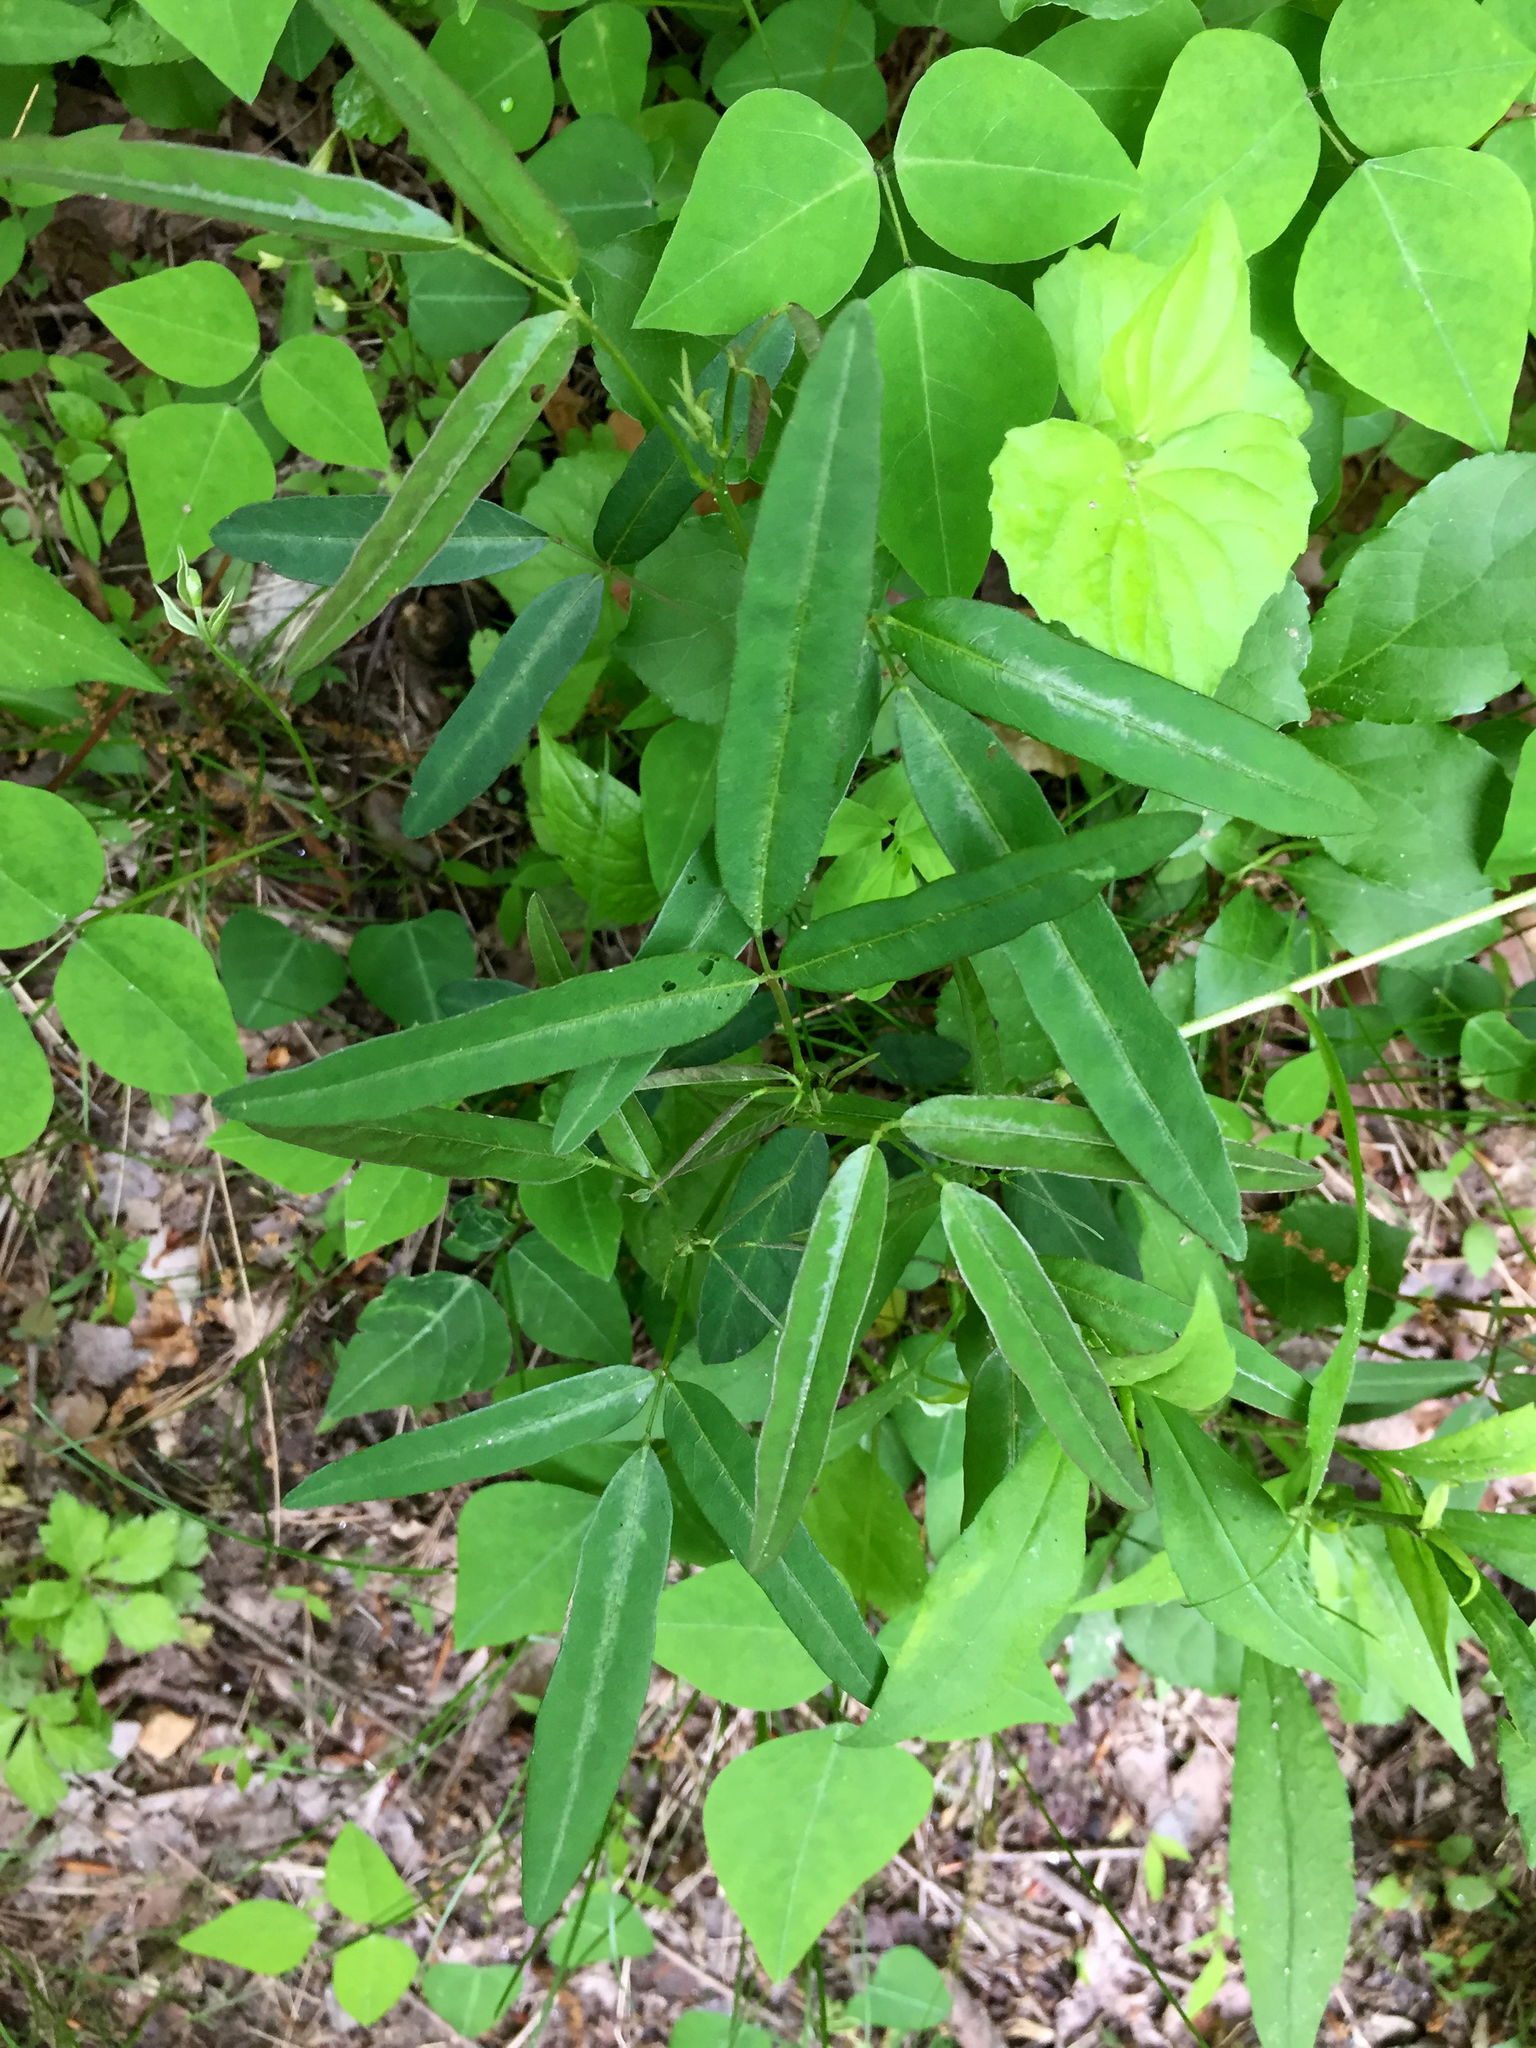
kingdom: Plantae
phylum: Tracheophyta
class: Magnoliopsida
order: Fabales
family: Fabaceae
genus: Desmodium
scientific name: Desmodium paniculatum
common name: Panicled tick-clover
